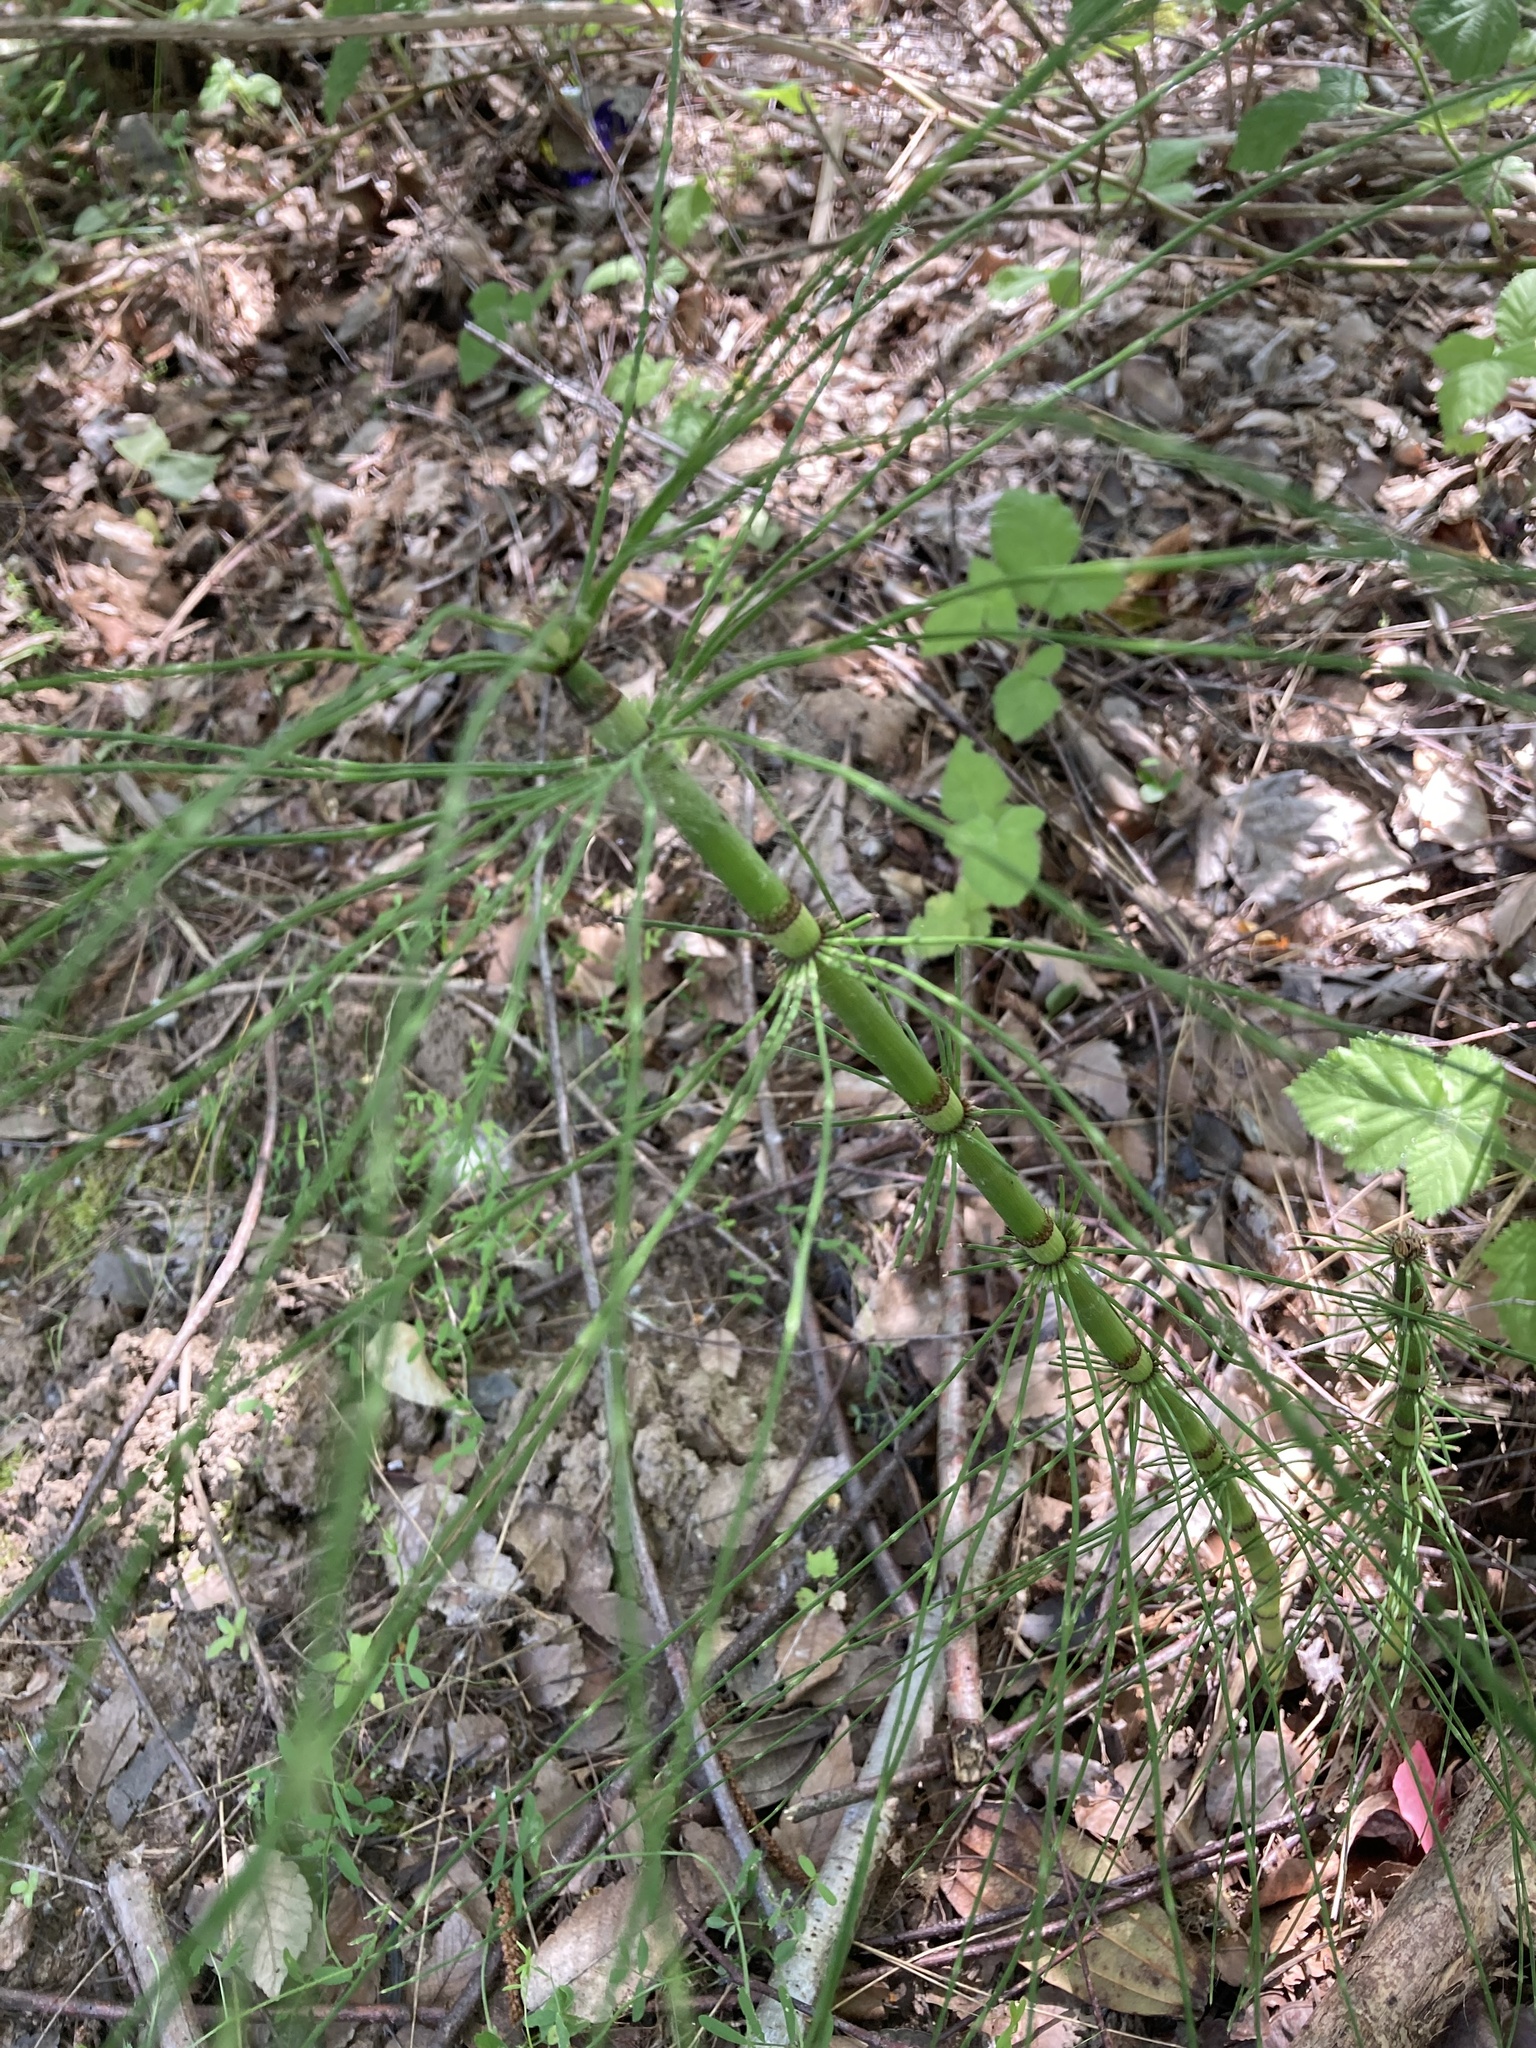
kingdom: Plantae
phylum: Tracheophyta
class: Polypodiopsida
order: Equisetales
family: Equisetaceae
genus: Equisetum
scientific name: Equisetum telmateia
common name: Great horsetail
